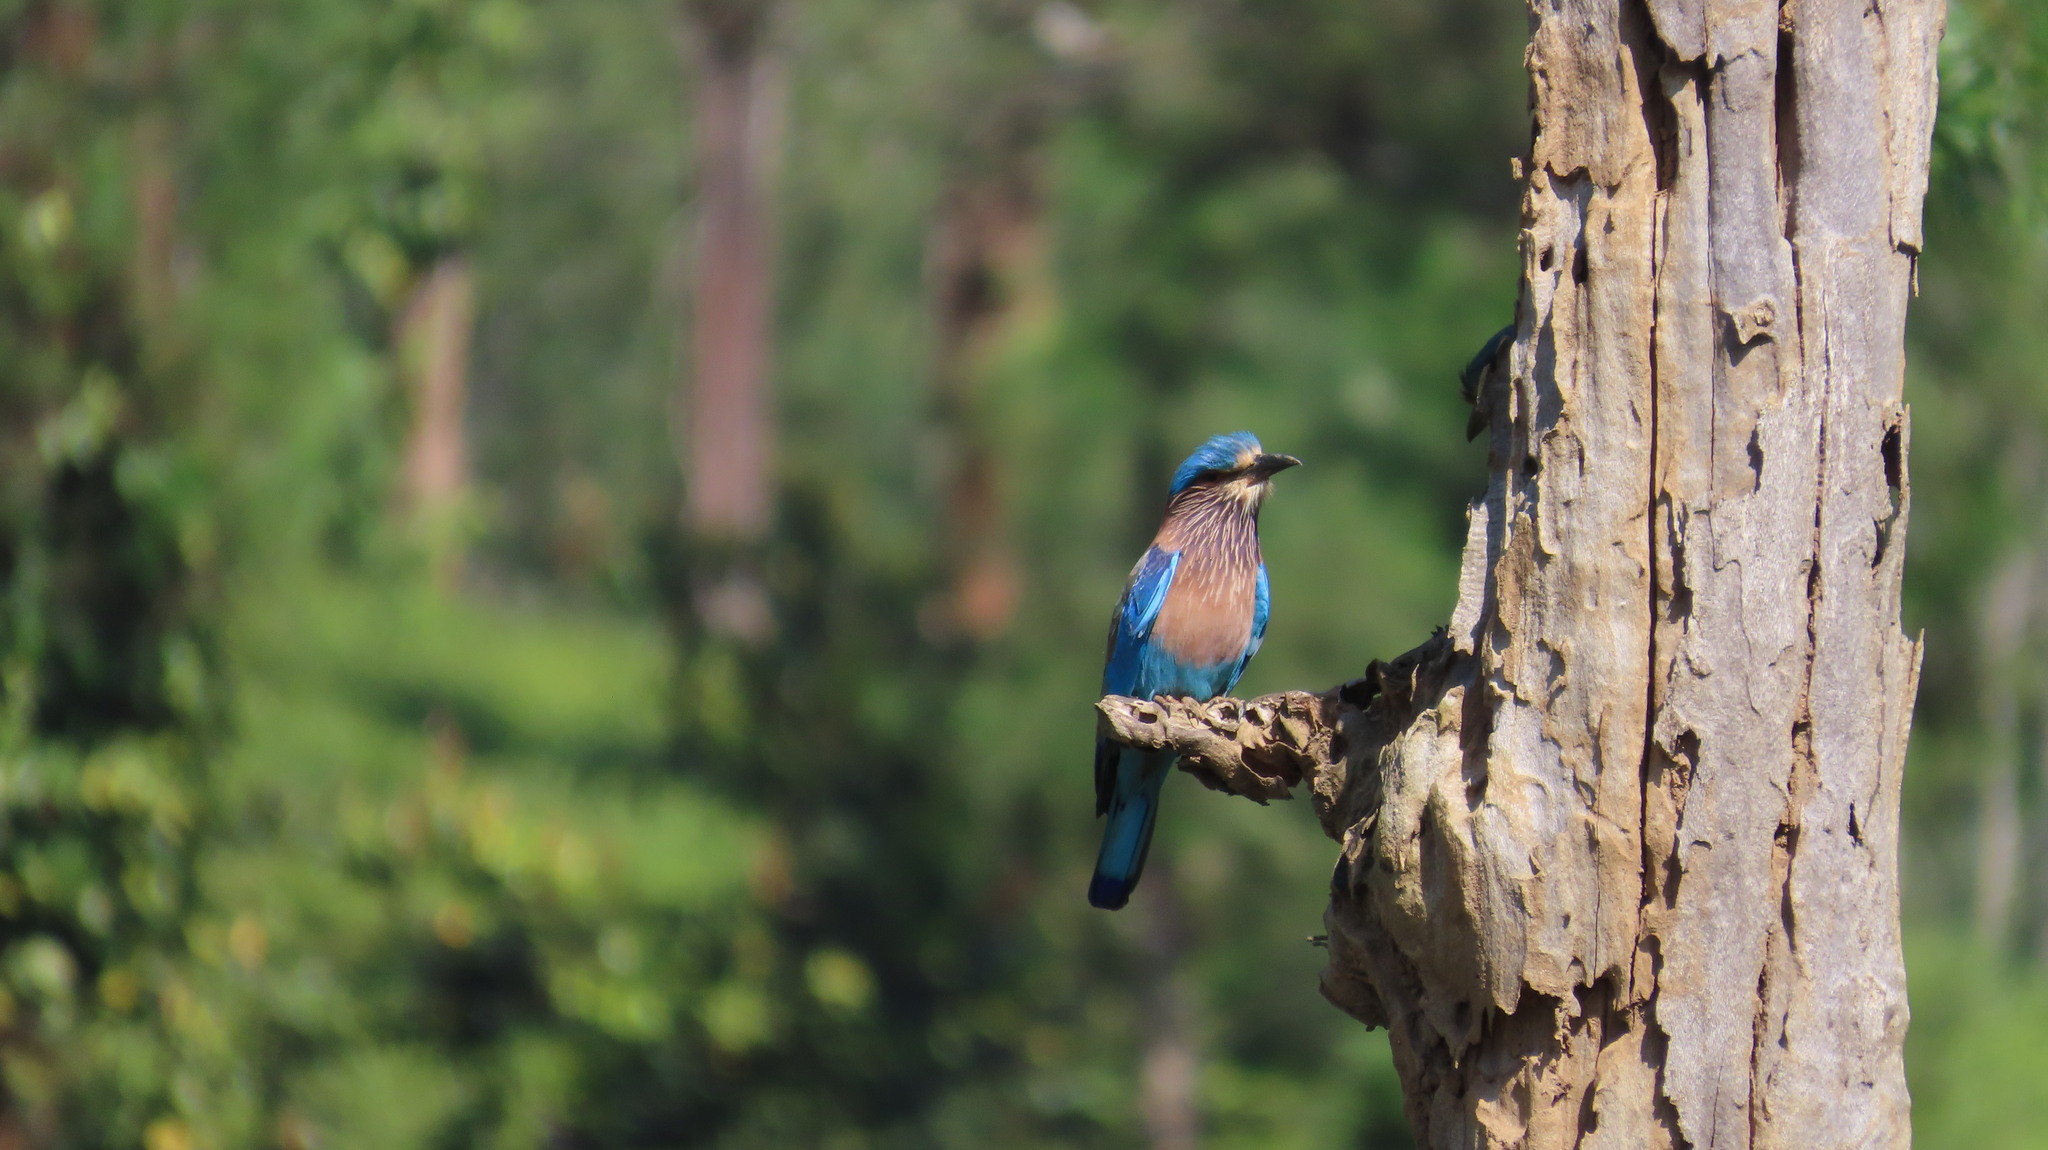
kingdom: Animalia
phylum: Chordata
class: Aves
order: Coraciiformes
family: Coraciidae
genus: Coracias
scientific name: Coracias benghalensis
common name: Indian roller
